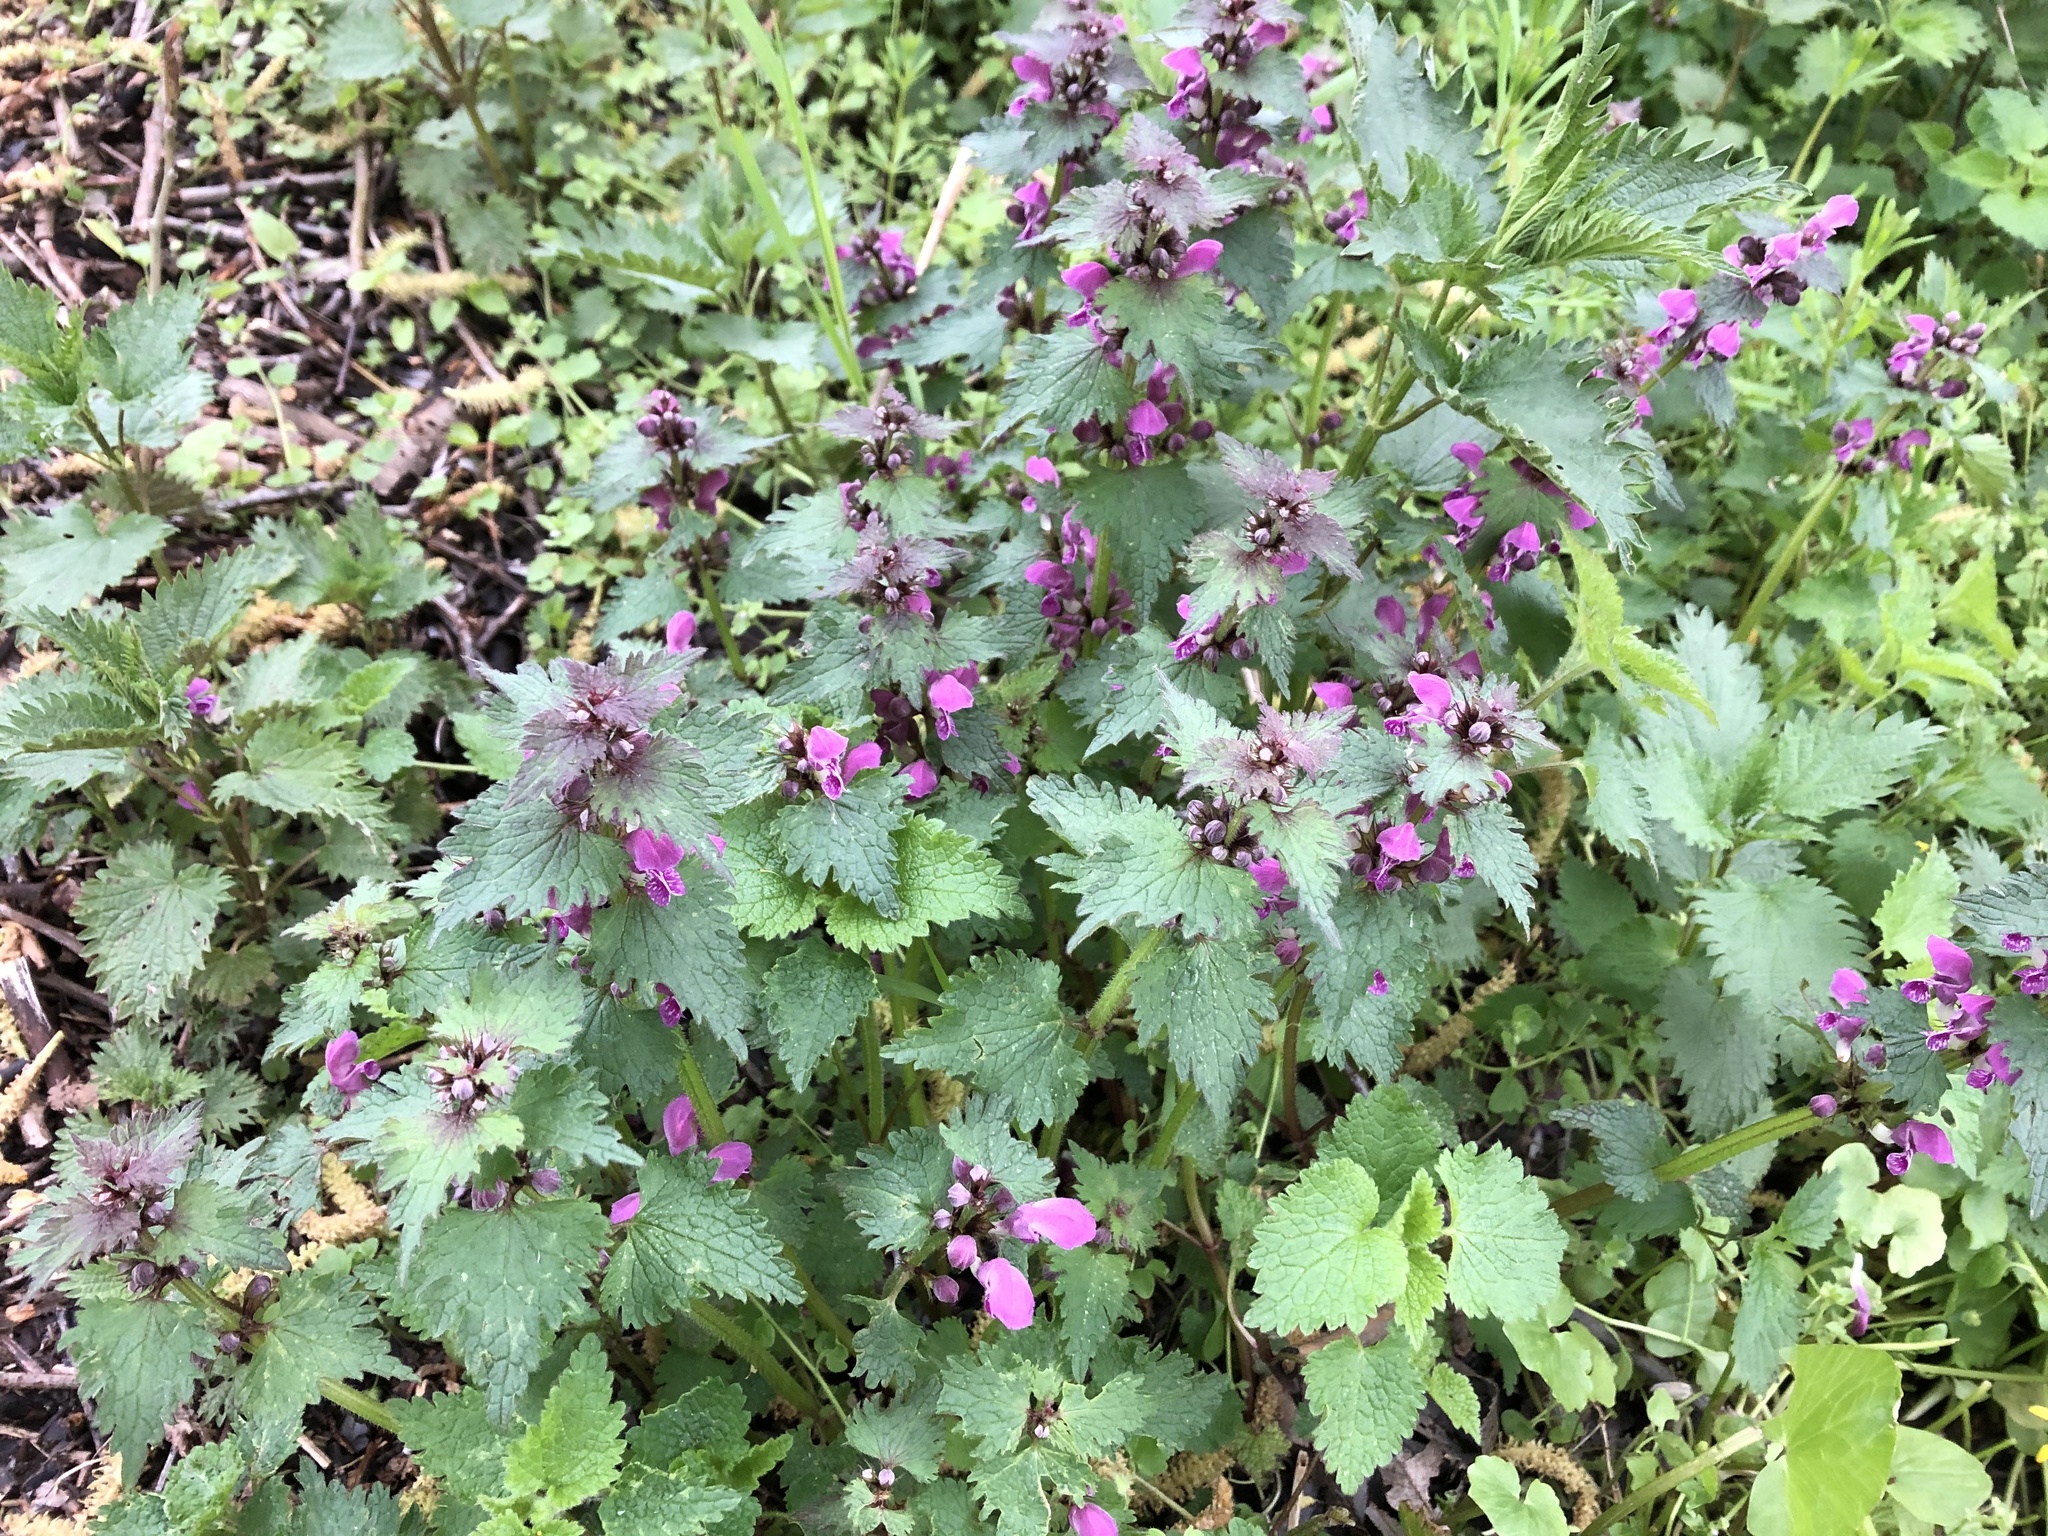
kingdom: Plantae
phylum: Tracheophyta
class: Magnoliopsida
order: Lamiales
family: Lamiaceae
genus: Lamium
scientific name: Lamium maculatum
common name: Spotted dead-nettle
